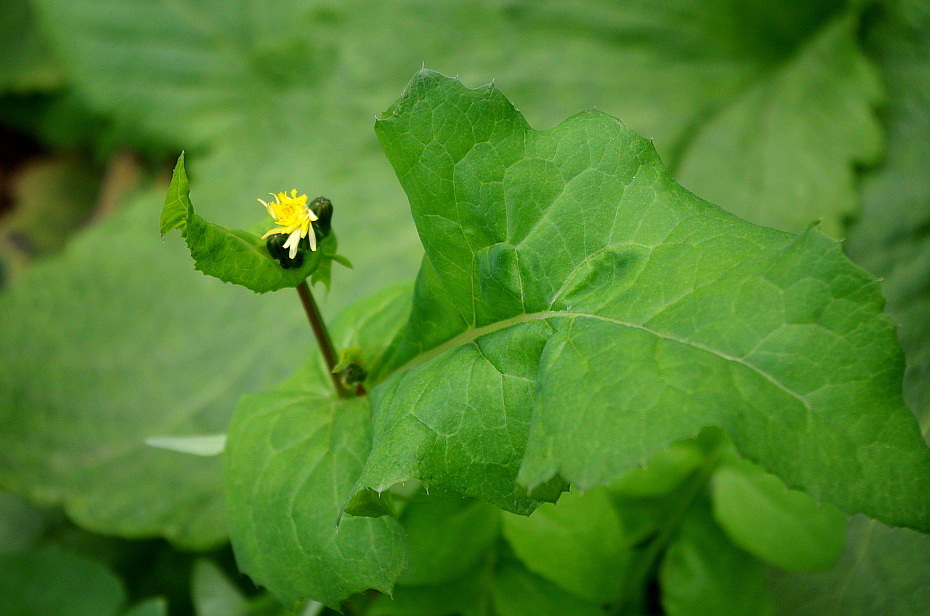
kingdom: Plantae
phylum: Tracheophyta
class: Magnoliopsida
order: Asterales
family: Asteraceae
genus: Sonchus
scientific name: Sonchus oleraceus
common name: Common sowthistle
